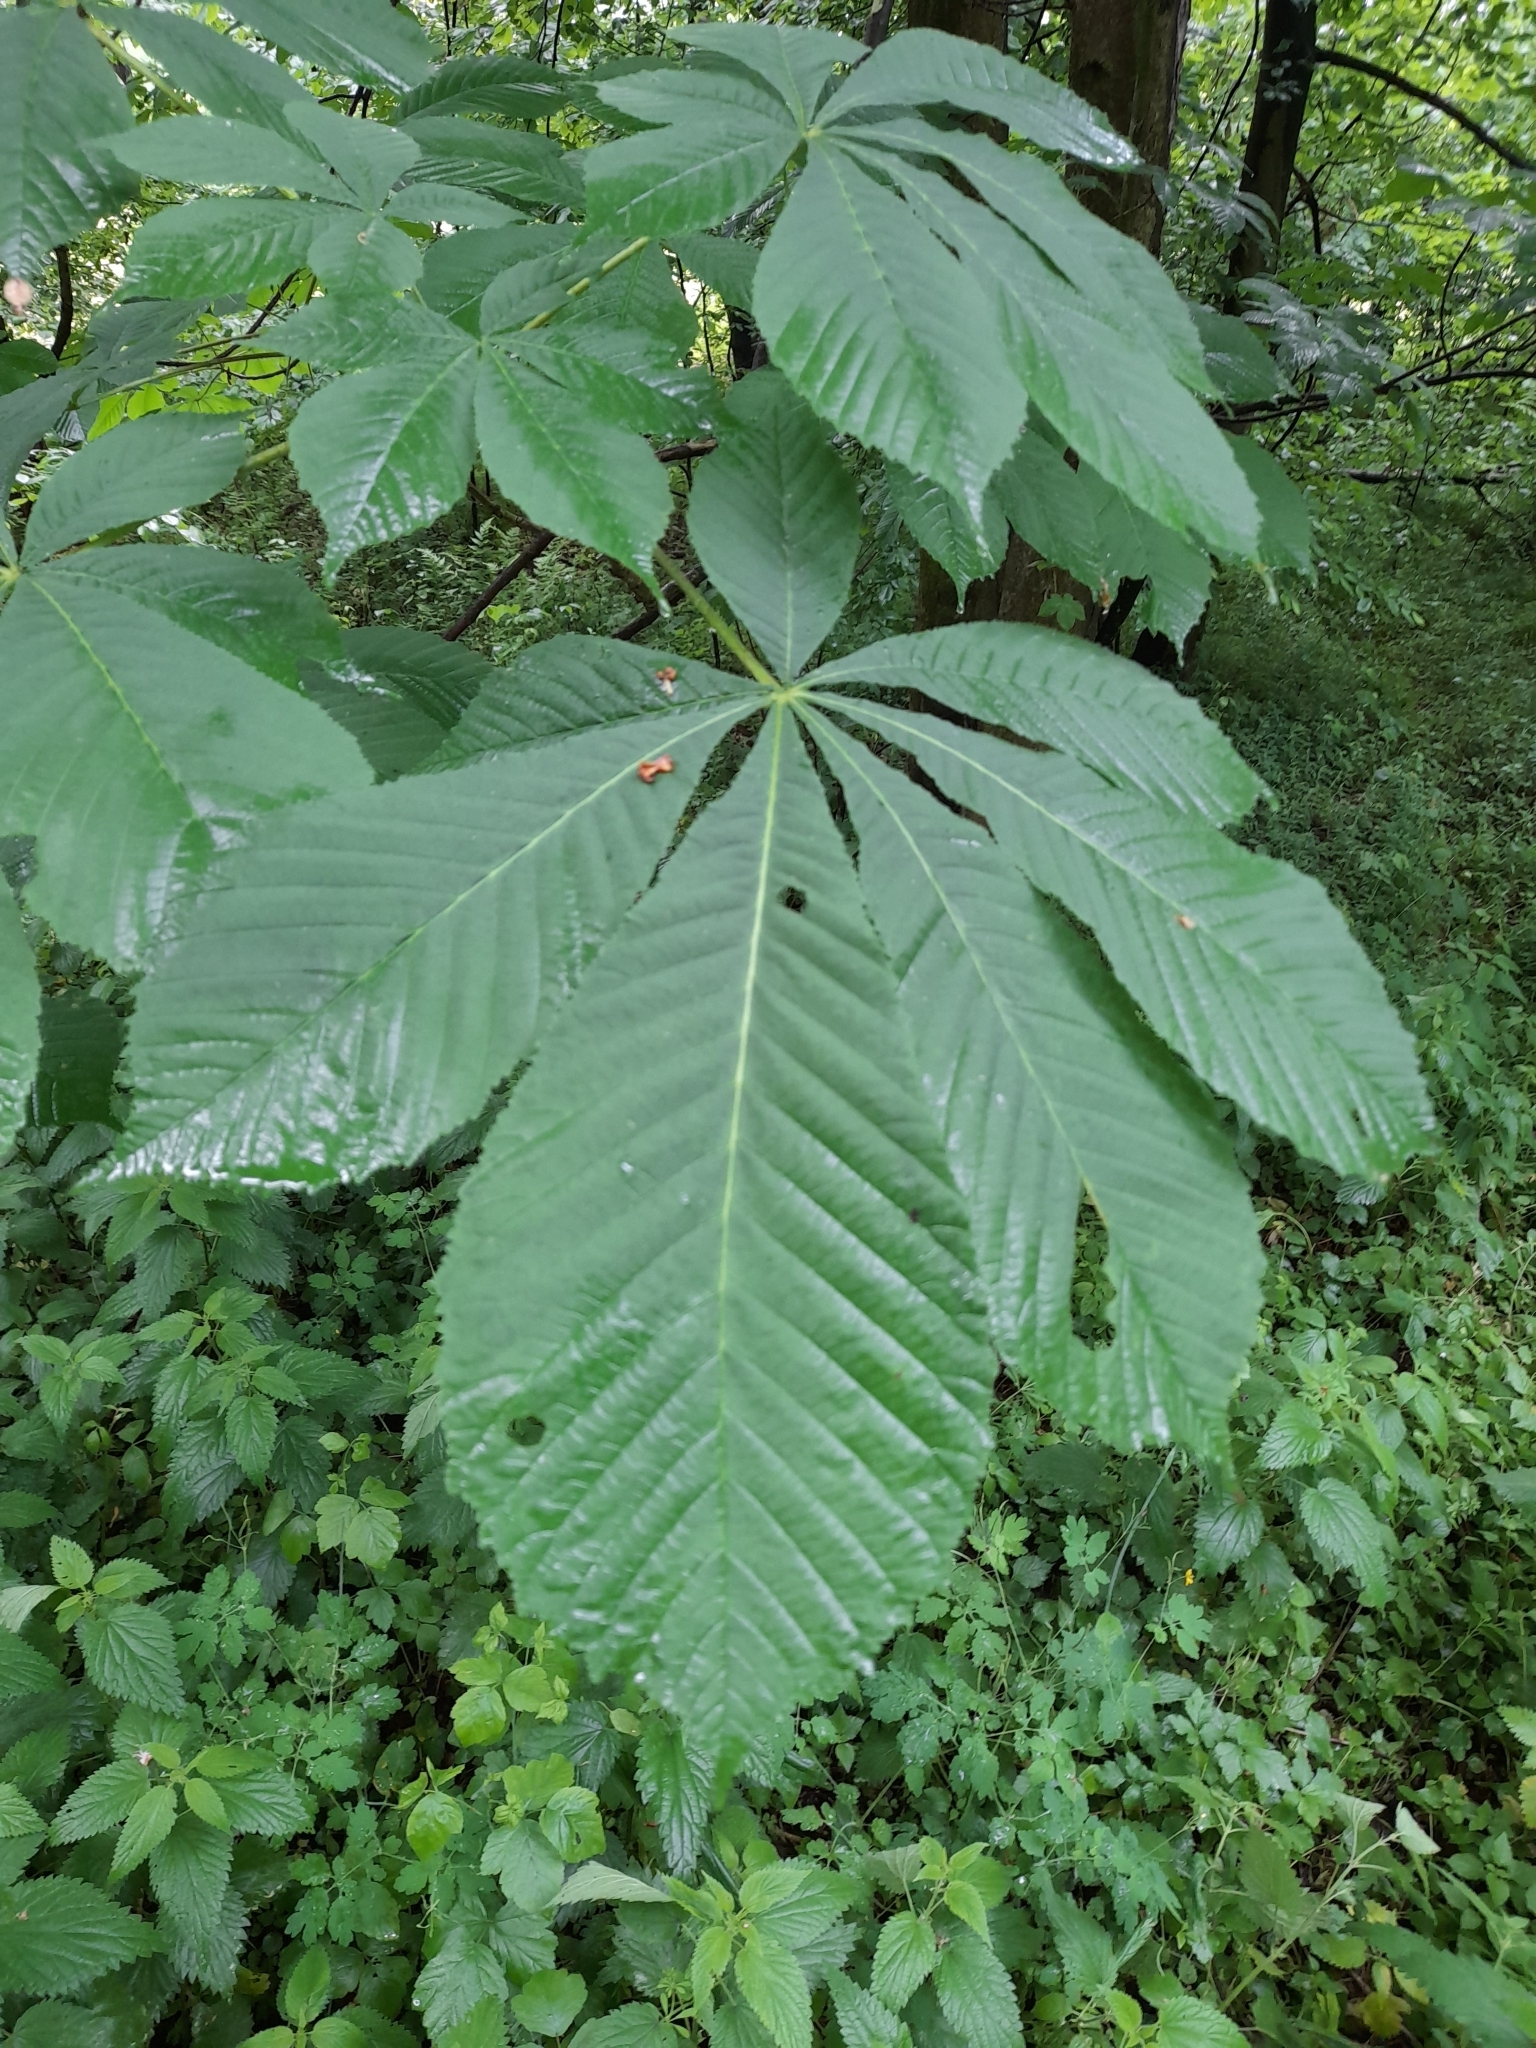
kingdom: Plantae
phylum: Tracheophyta
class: Magnoliopsida
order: Sapindales
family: Sapindaceae
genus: Aesculus
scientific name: Aesculus hippocastanum
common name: Horse-chestnut
